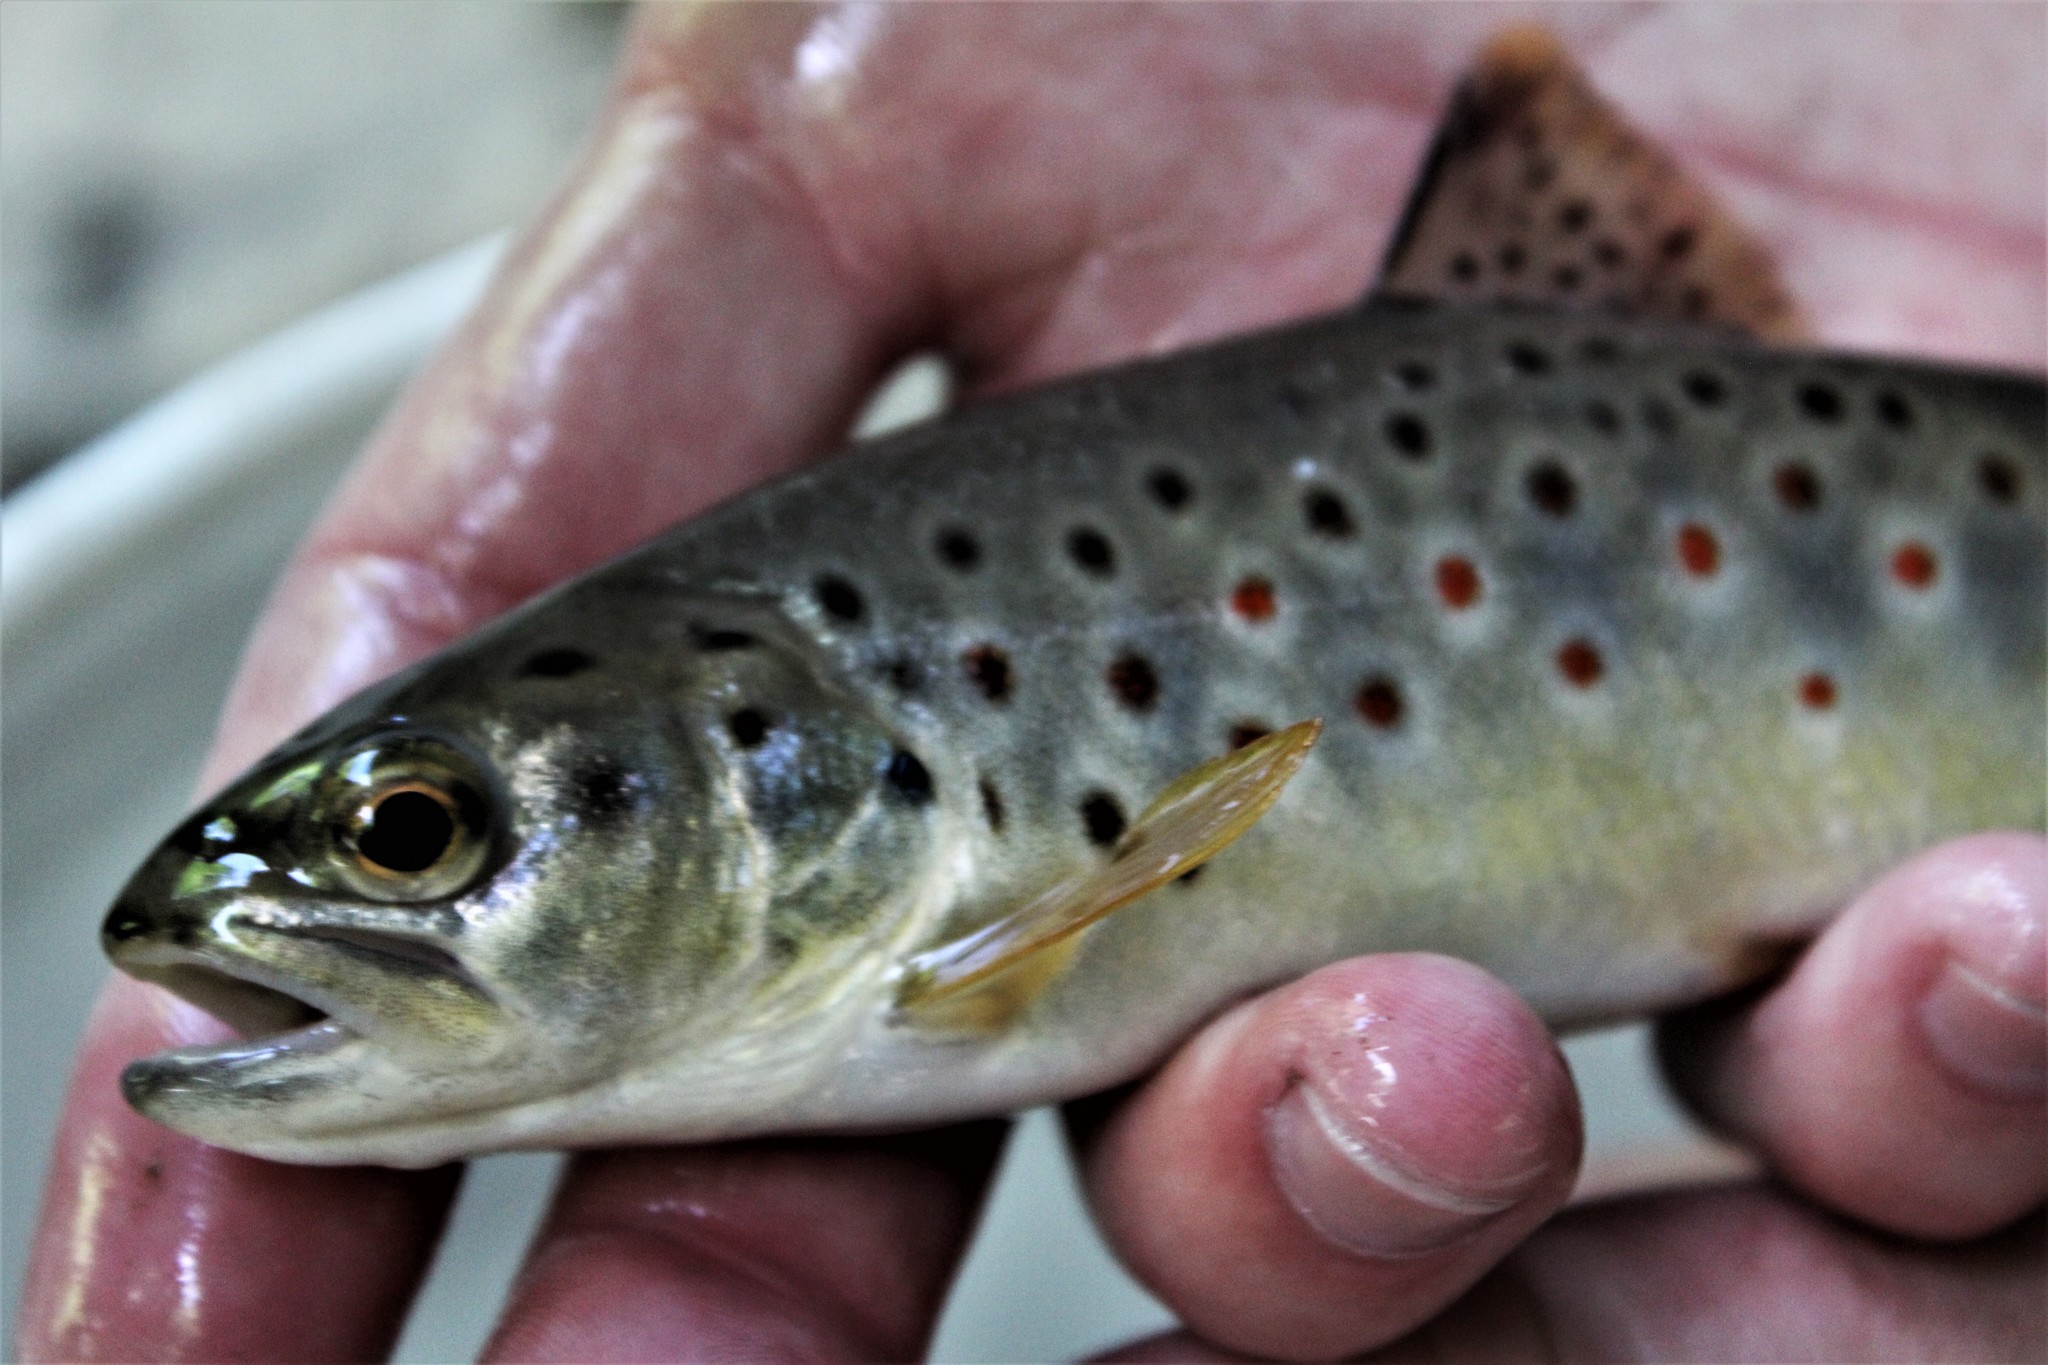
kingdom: Animalia
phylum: Chordata
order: Salmoniformes
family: Salmonidae
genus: Salmo
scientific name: Salmo trutta
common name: Brown trout
